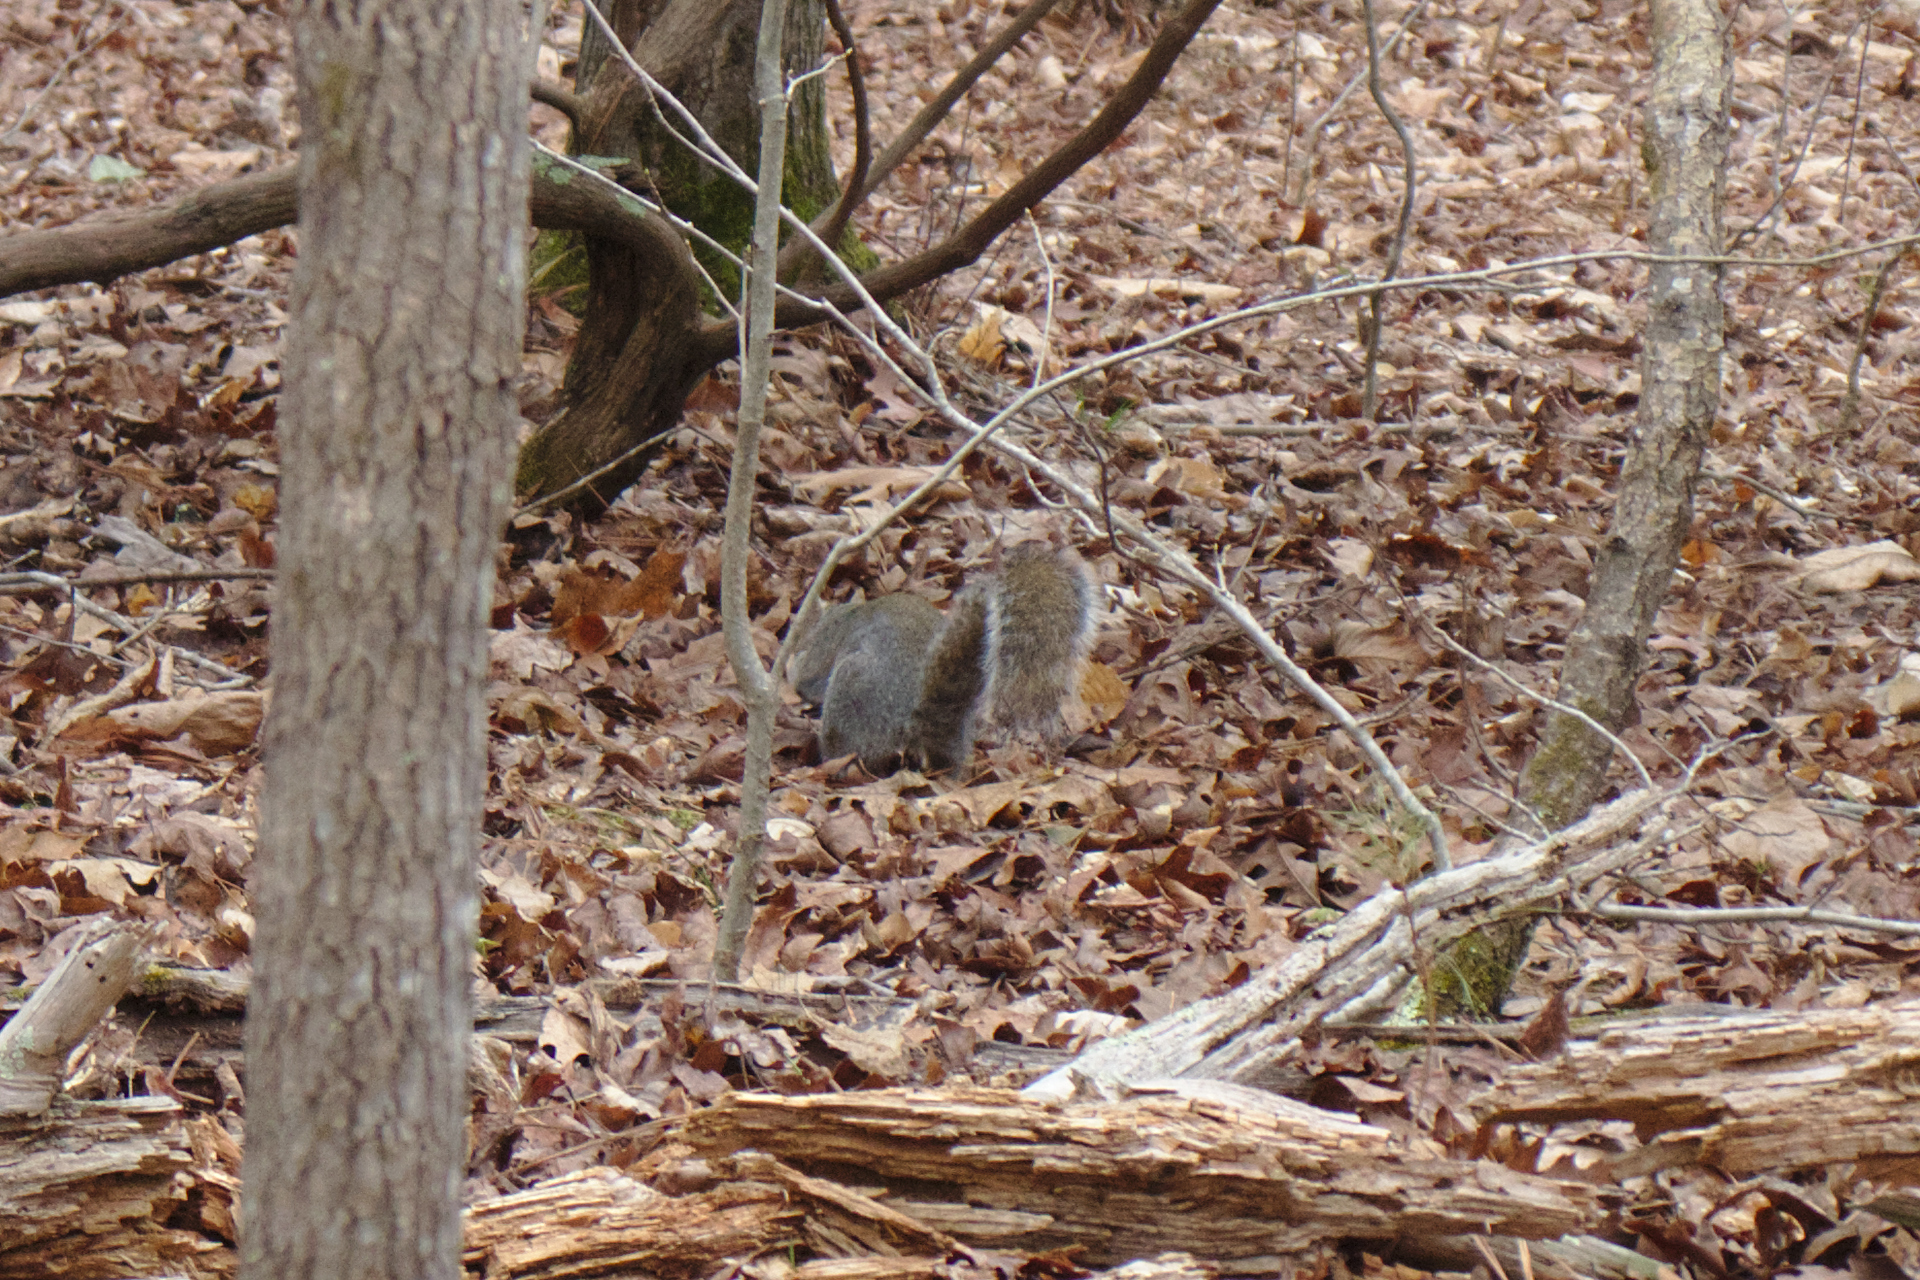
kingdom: Animalia
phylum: Chordata
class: Mammalia
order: Rodentia
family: Sciuridae
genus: Sciurus
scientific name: Sciurus carolinensis
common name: Eastern gray squirrel
